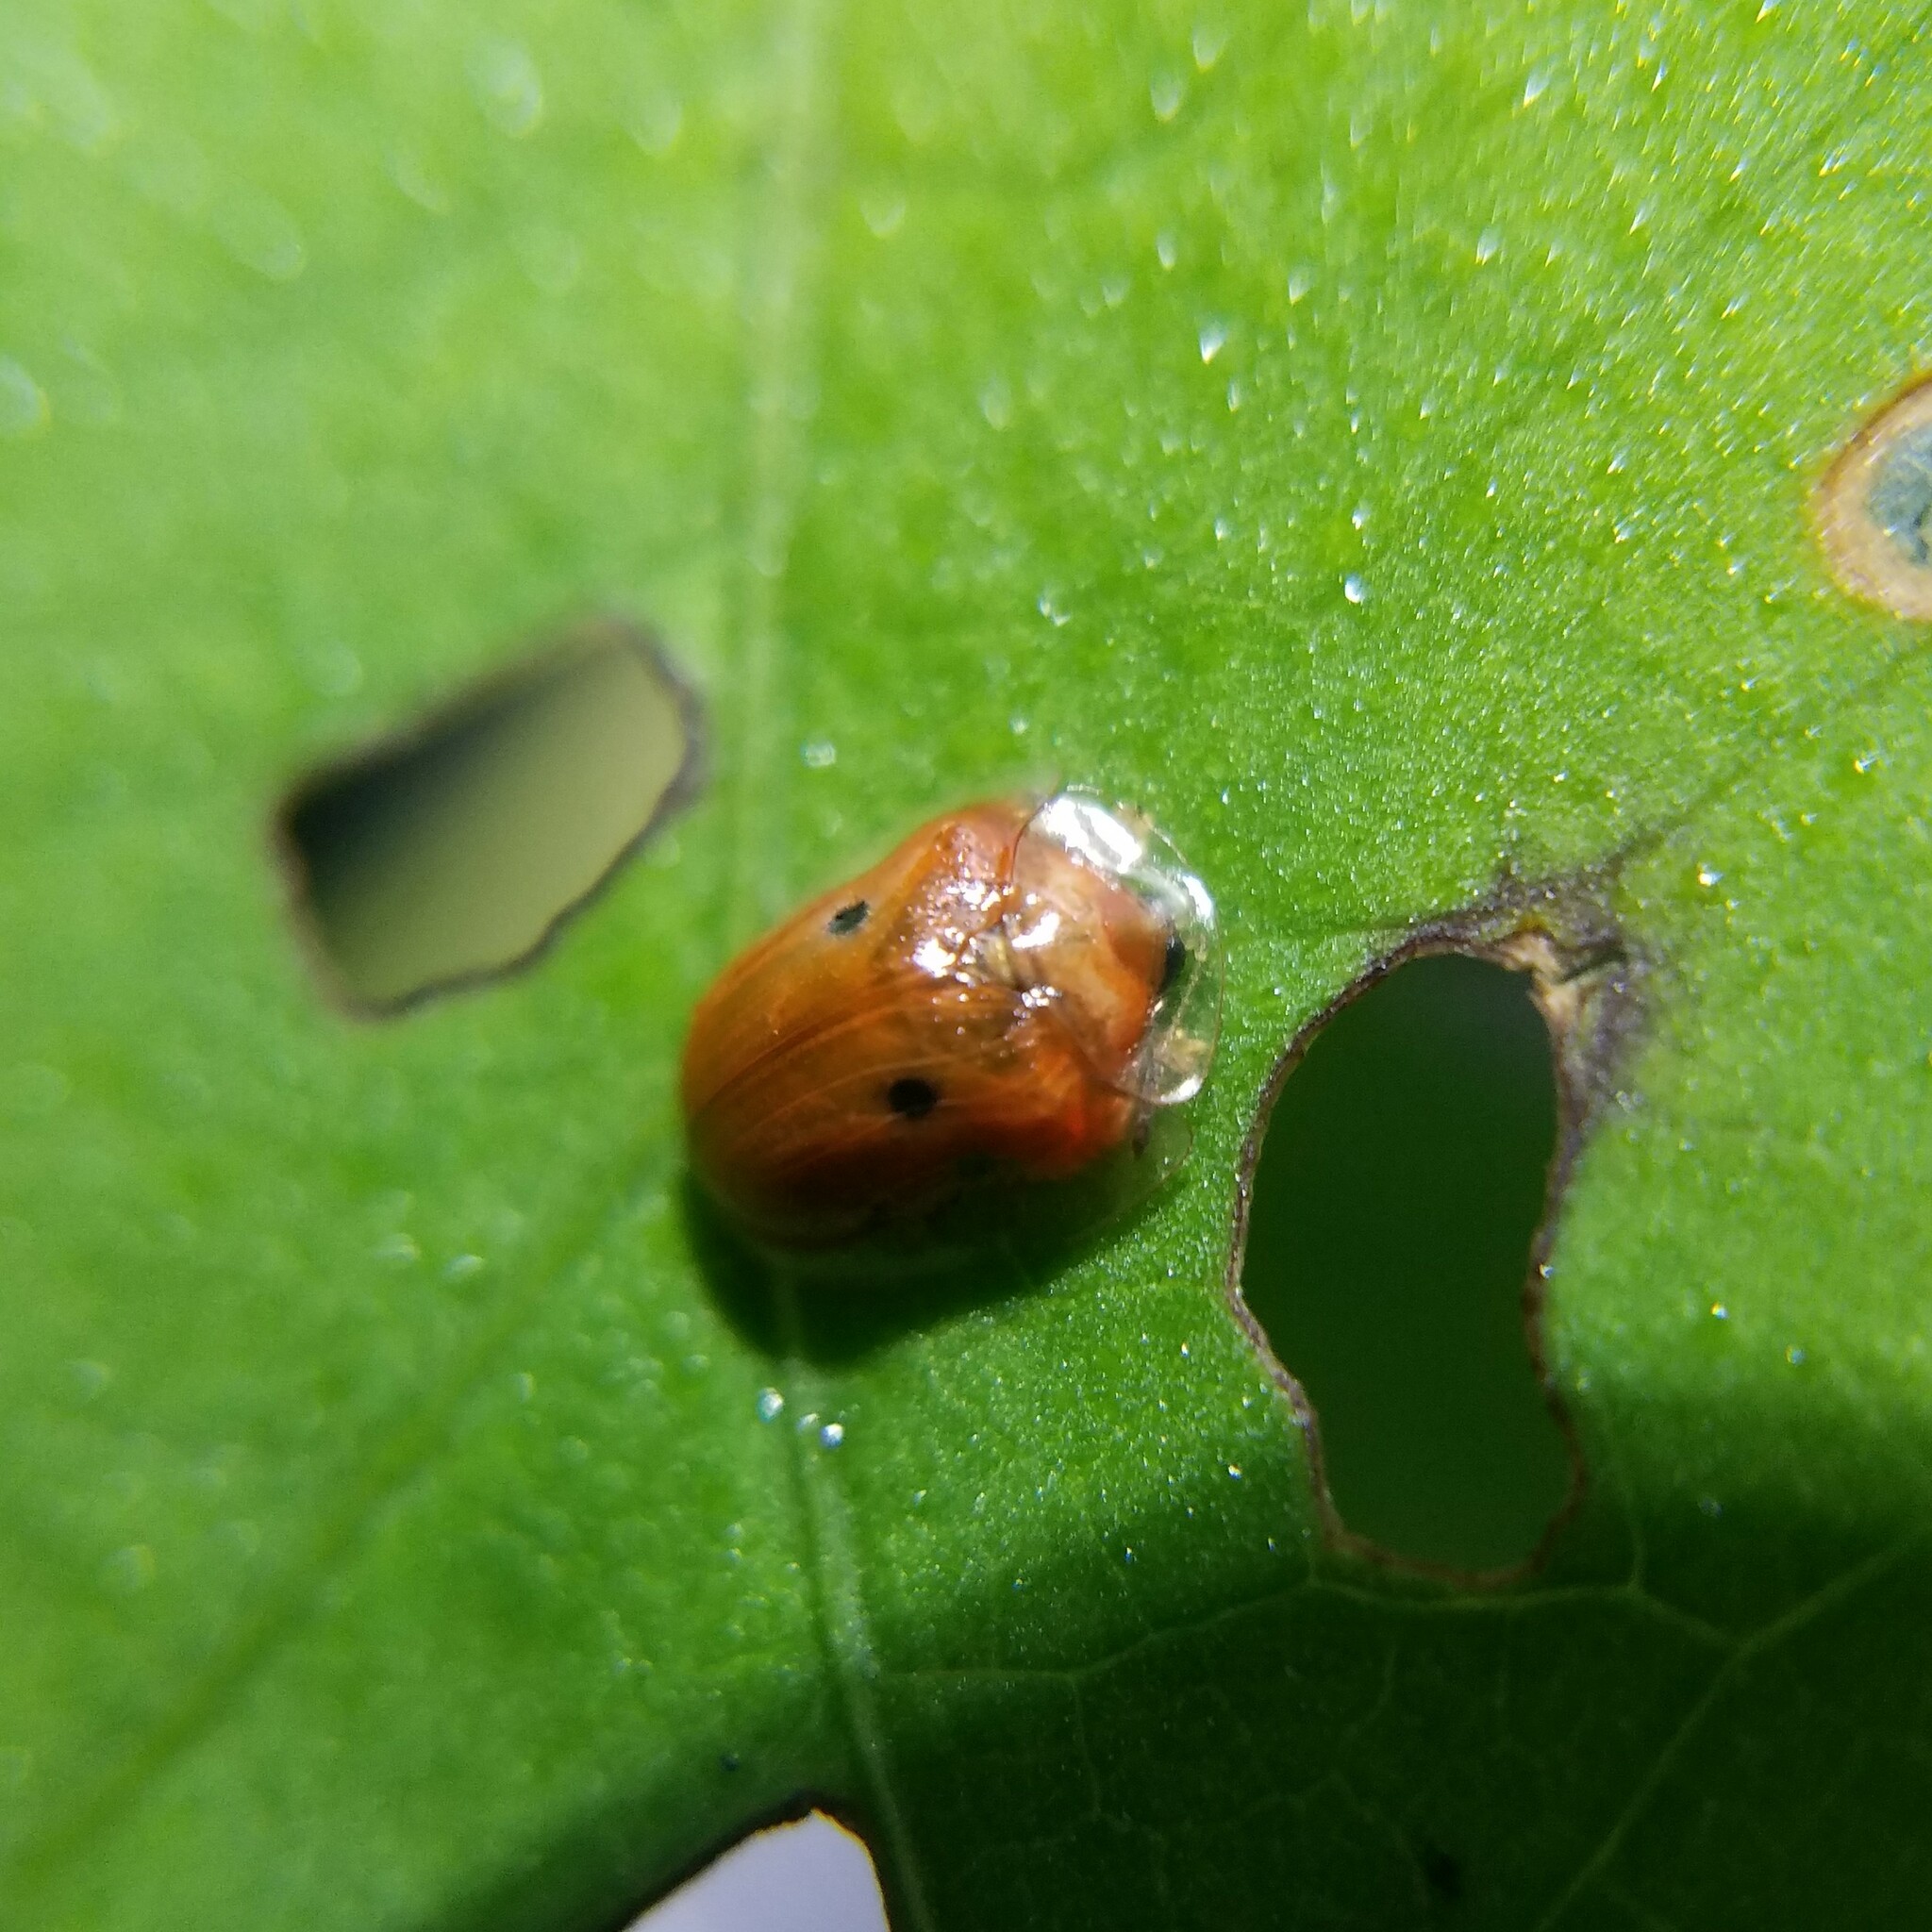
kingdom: Animalia
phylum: Arthropoda
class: Insecta
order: Coleoptera
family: Chrysomelidae
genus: Charidotella
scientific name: Charidotella sexpunctata
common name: Golden tortoise beetle
